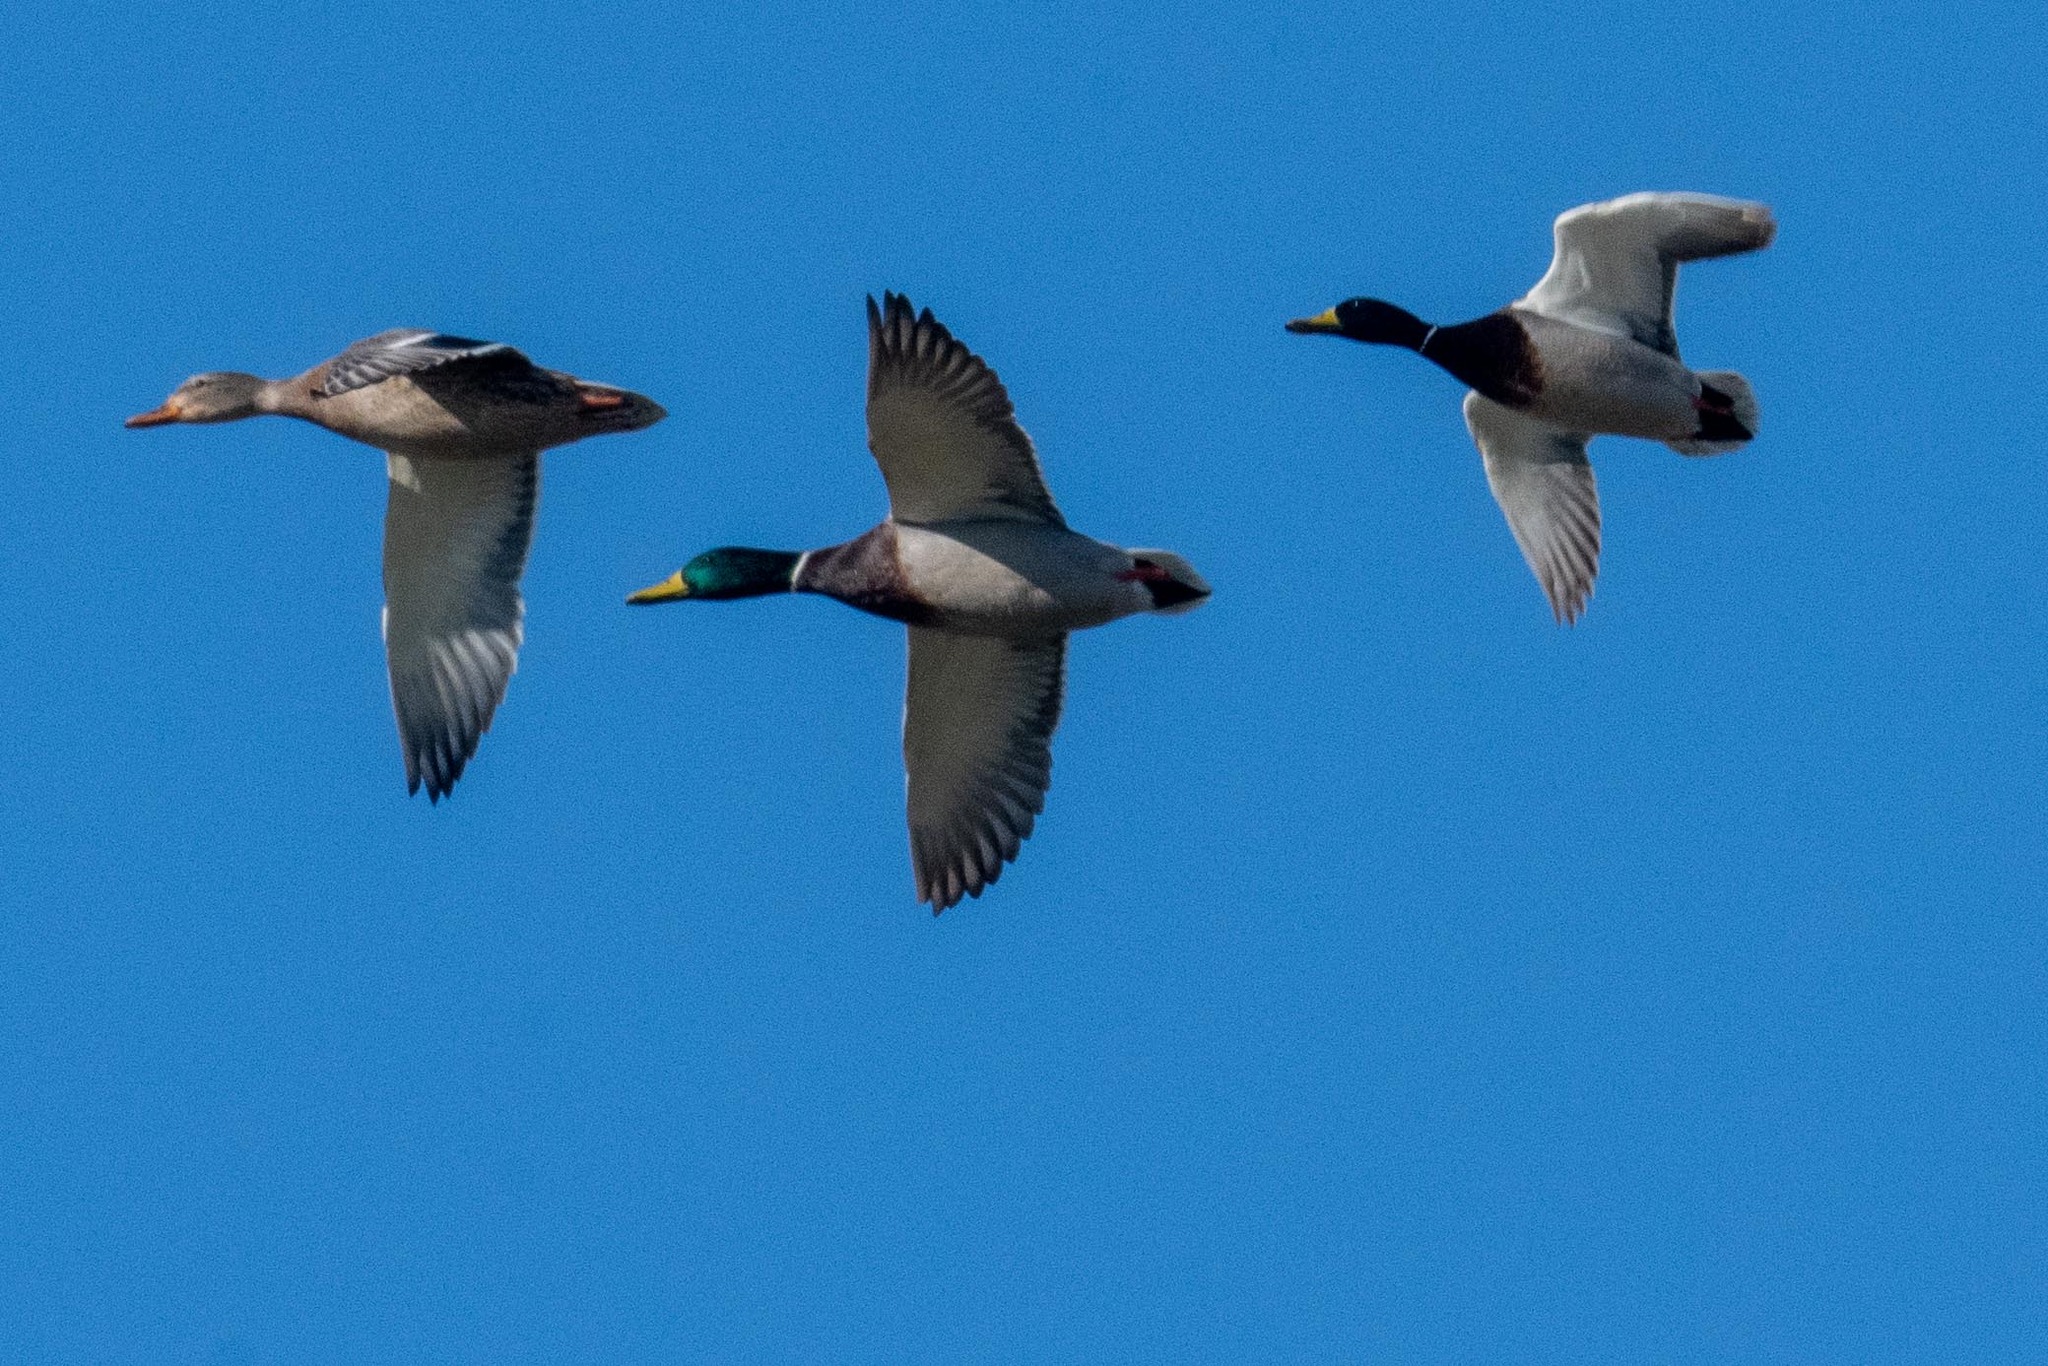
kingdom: Animalia
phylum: Chordata
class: Aves
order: Anseriformes
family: Anatidae
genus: Anas
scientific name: Anas platyrhynchos
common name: Mallard
